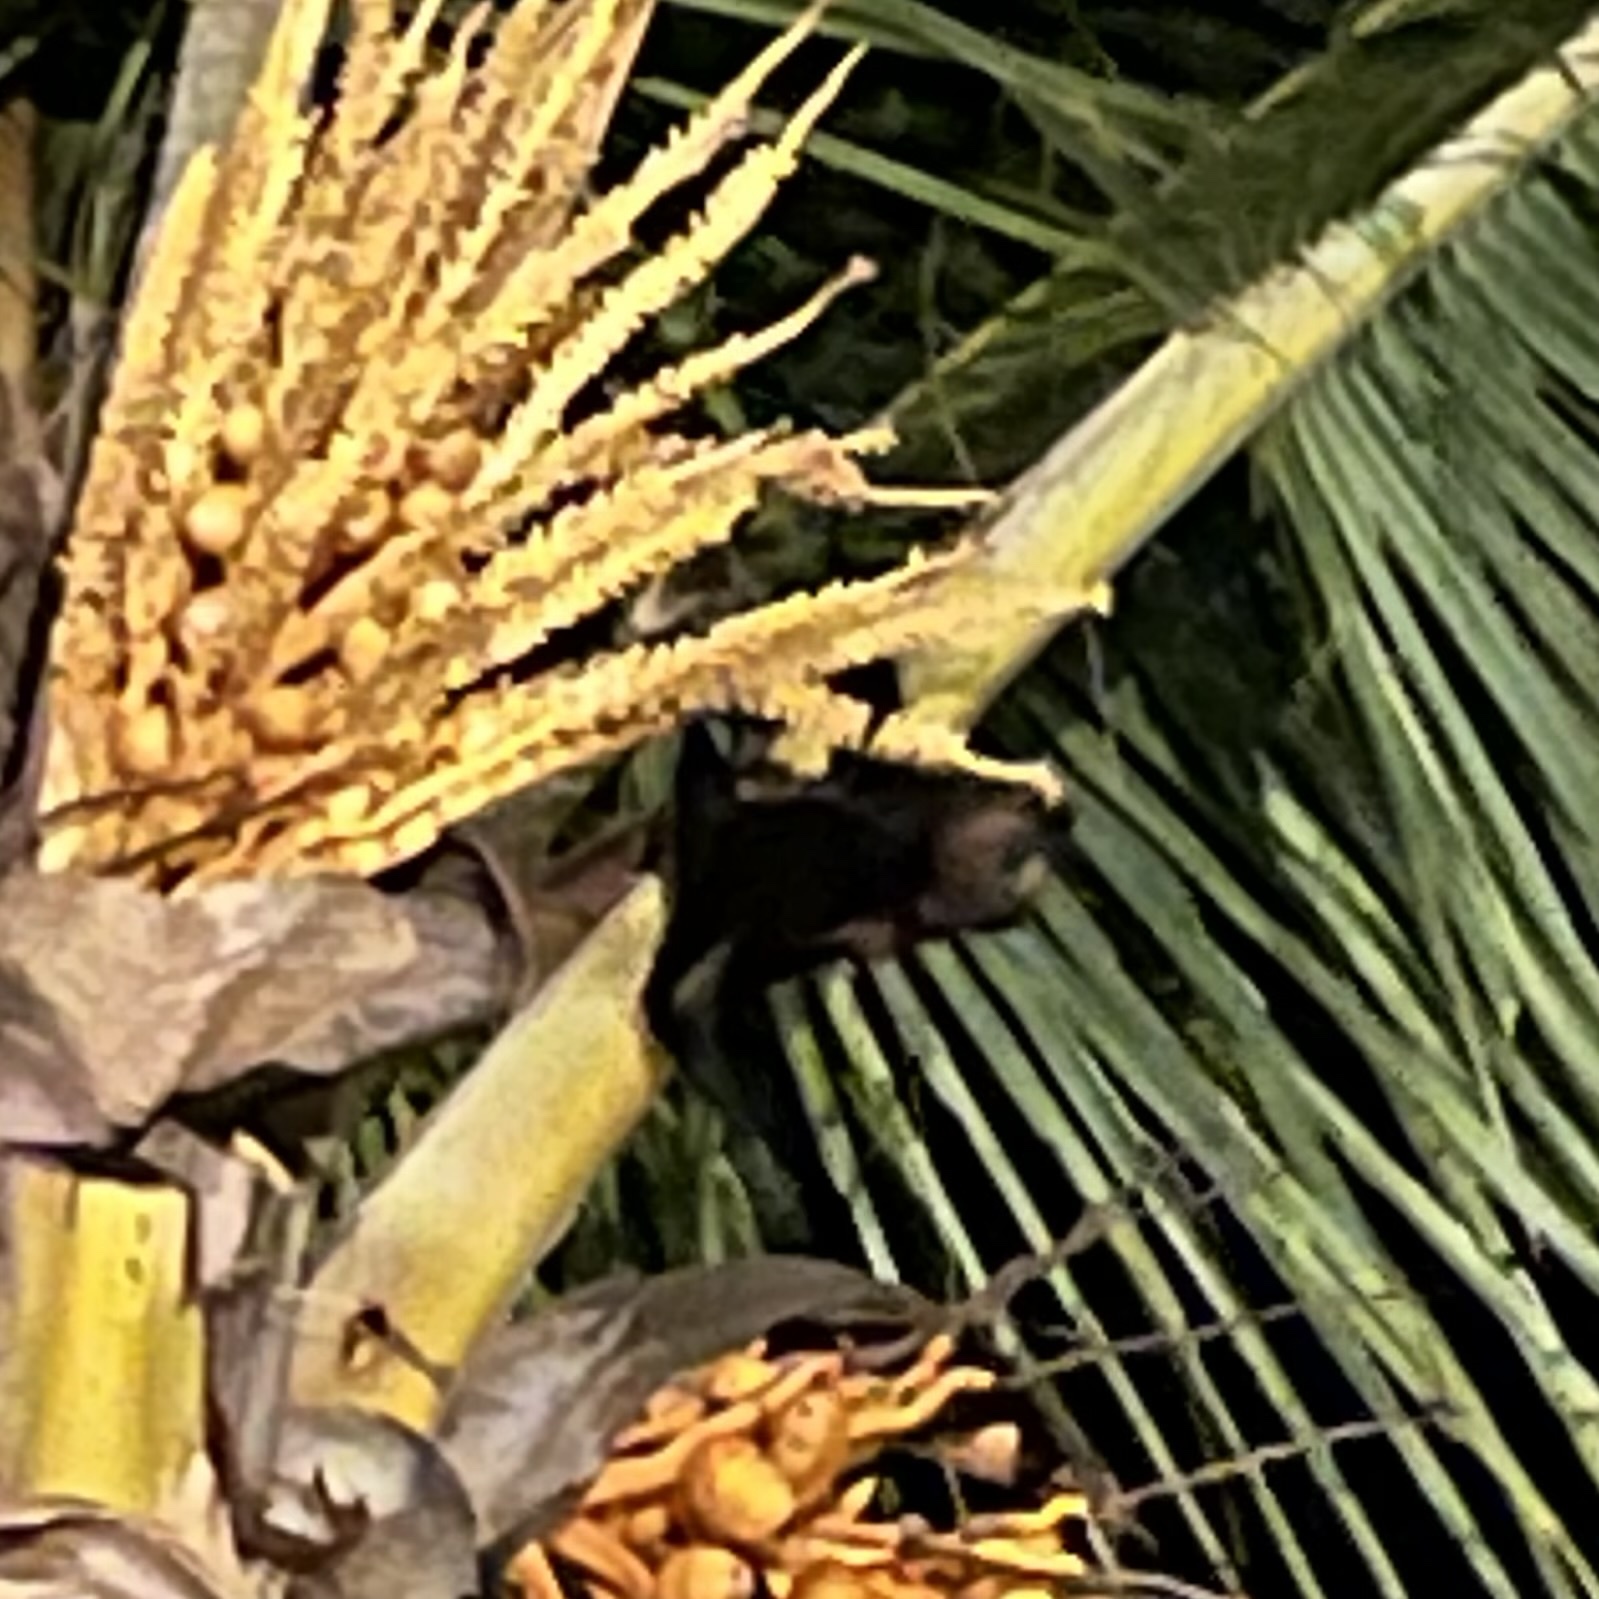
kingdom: Animalia
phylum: Chordata
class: Mammalia
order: Chiroptera
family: Pteropodidae
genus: Pteropus
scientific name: Pteropus niger
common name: Greater mascarene flying fox
